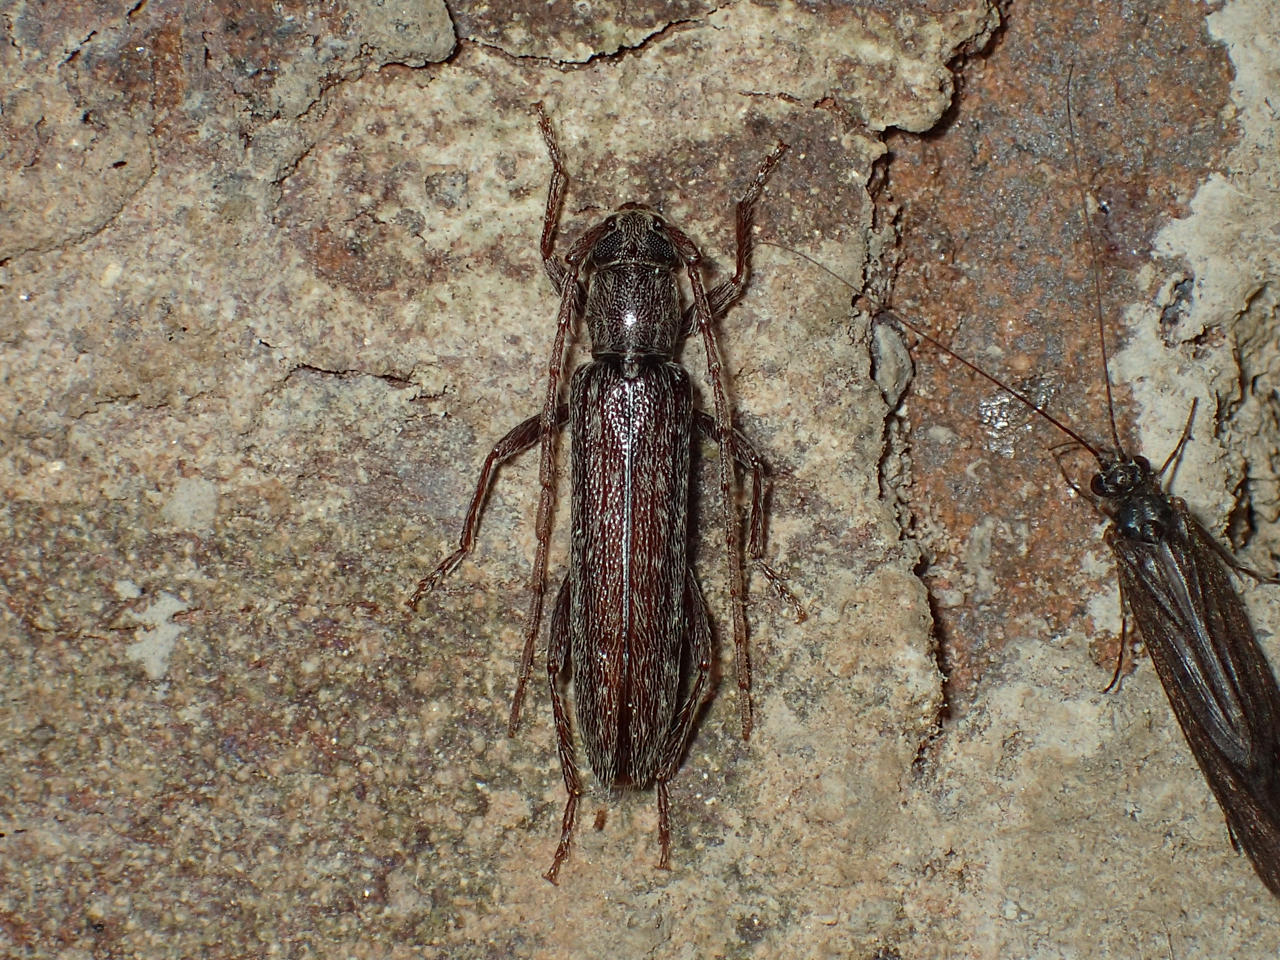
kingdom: Animalia
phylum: Arthropoda
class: Insecta
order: Coleoptera
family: Cerambycidae
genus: Anelaphus
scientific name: Anelaphus villosus
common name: Twig pruner
